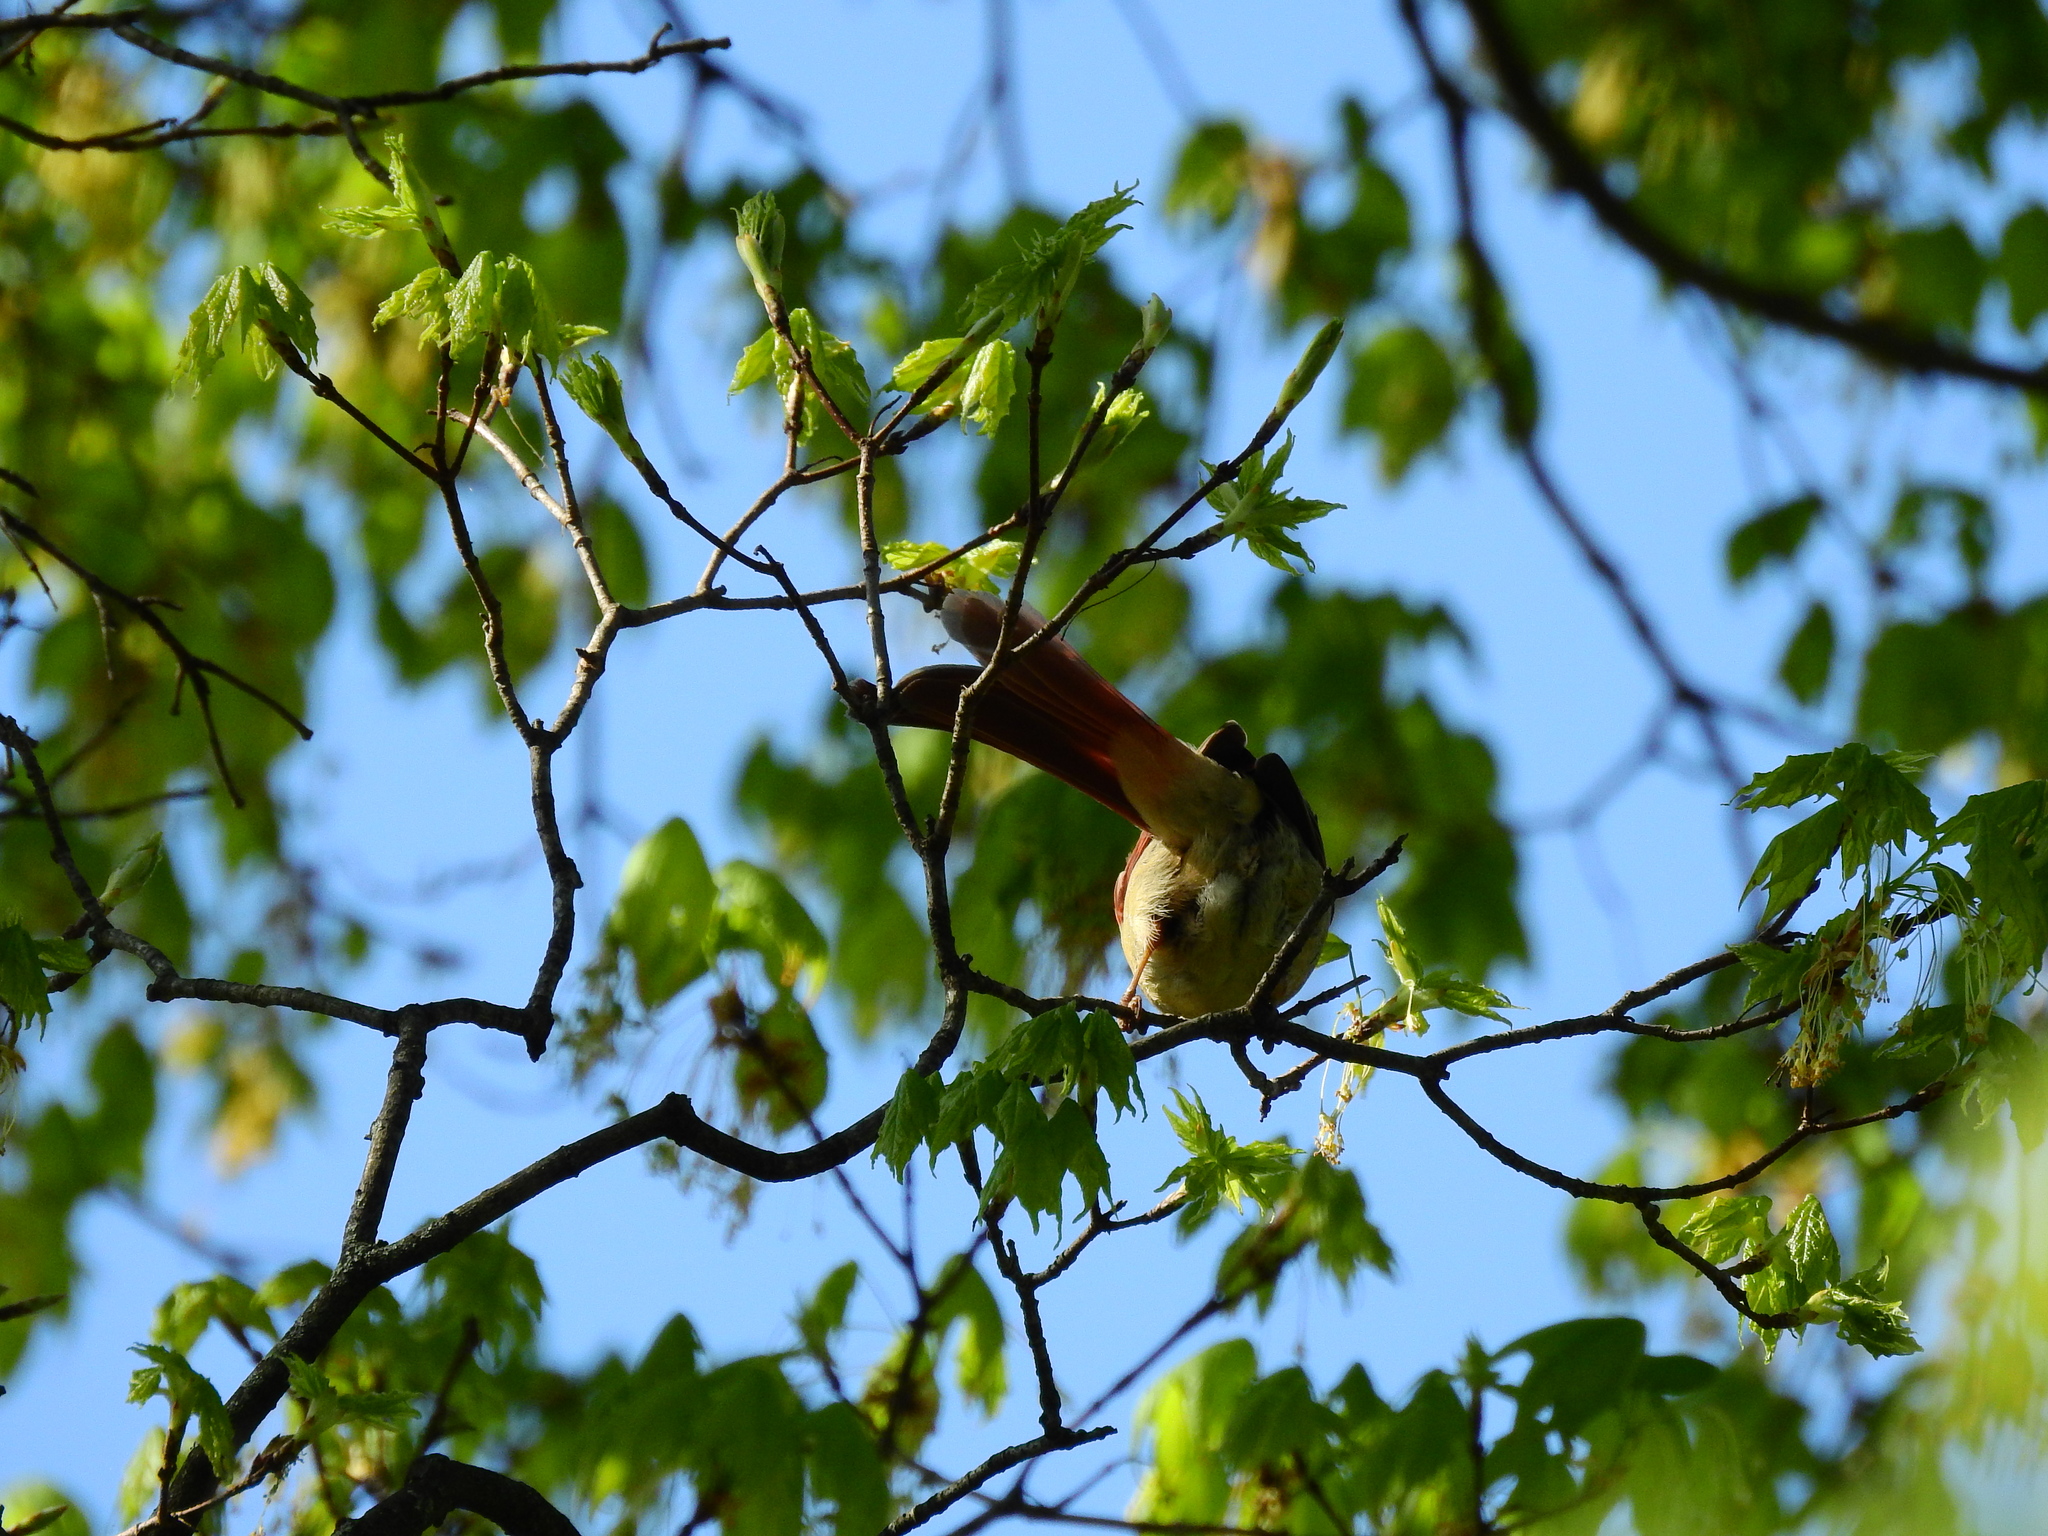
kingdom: Animalia
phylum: Chordata
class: Aves
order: Passeriformes
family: Cardinalidae
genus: Cardinalis
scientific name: Cardinalis cardinalis
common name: Northern cardinal
